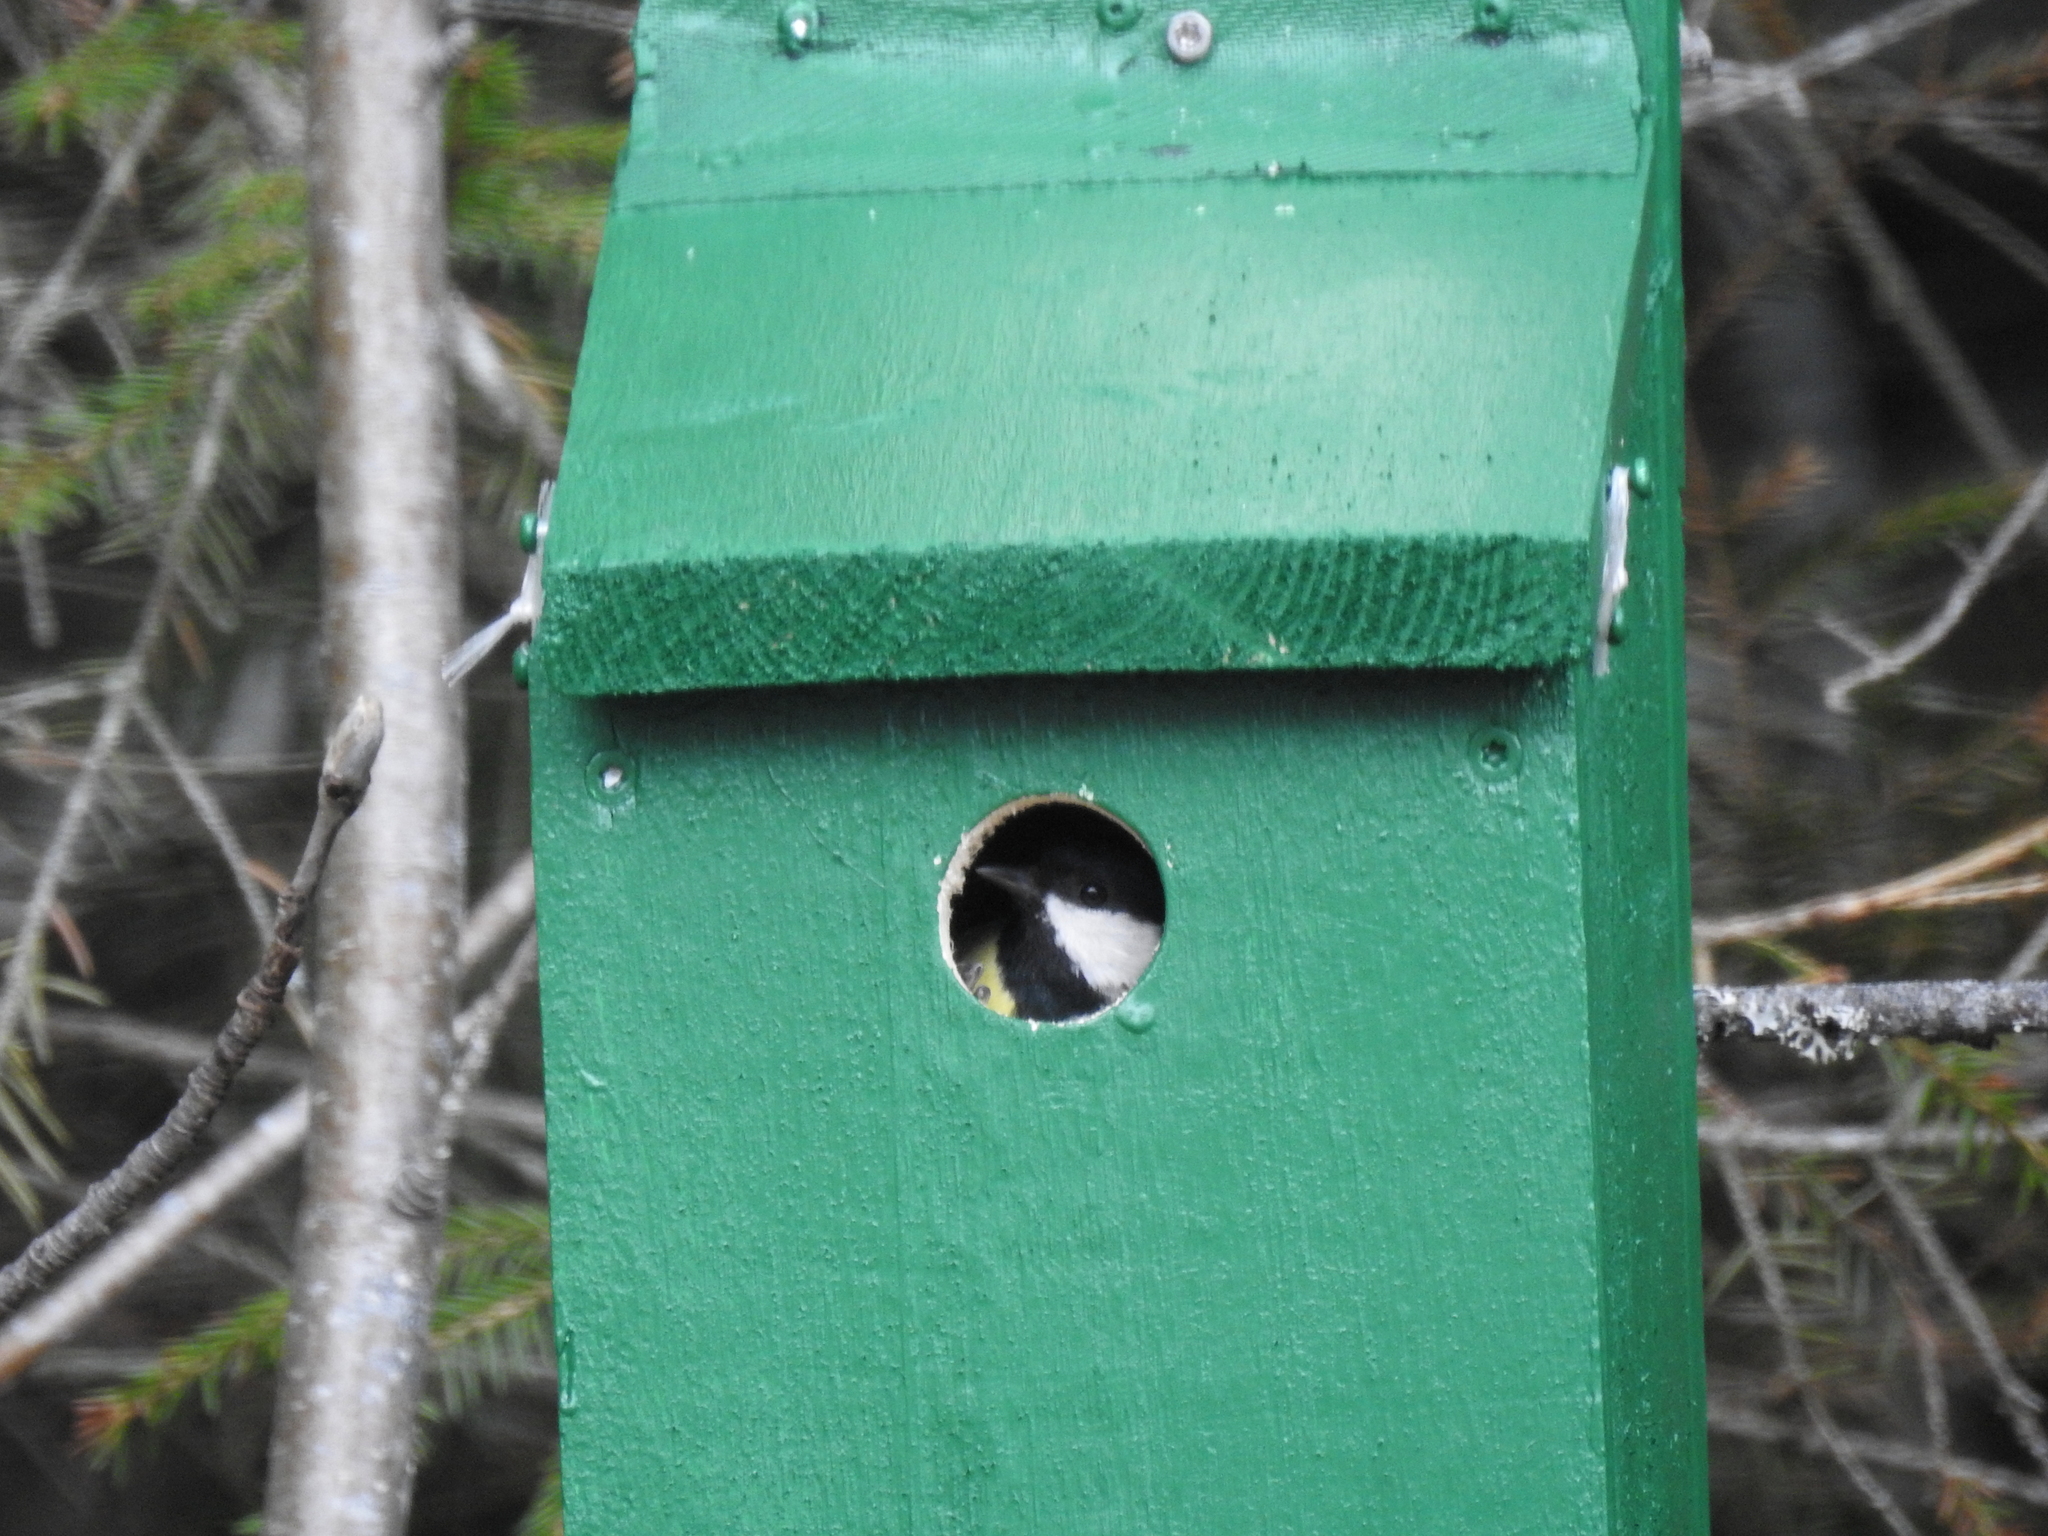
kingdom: Animalia
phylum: Chordata
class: Aves
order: Passeriformes
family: Paridae
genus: Parus
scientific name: Parus major
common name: Great tit
